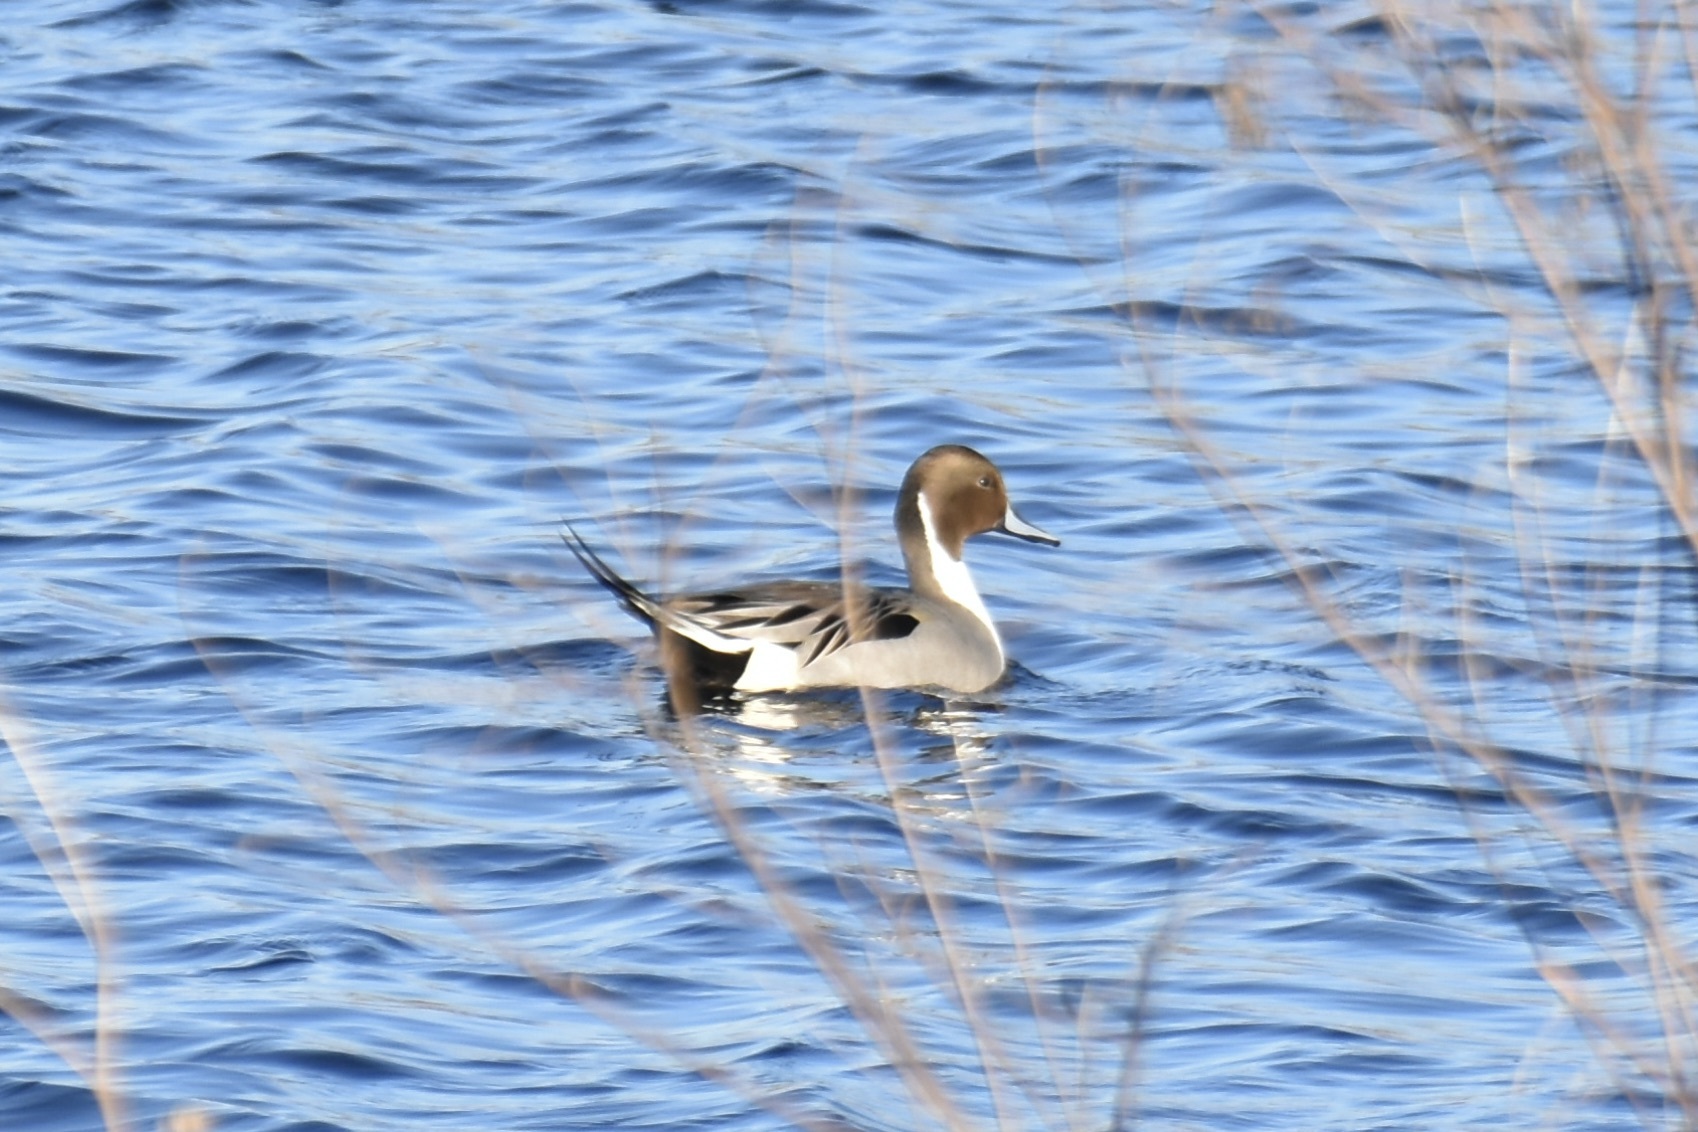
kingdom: Animalia
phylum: Chordata
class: Aves
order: Anseriformes
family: Anatidae
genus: Anas
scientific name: Anas acuta
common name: Northern pintail
